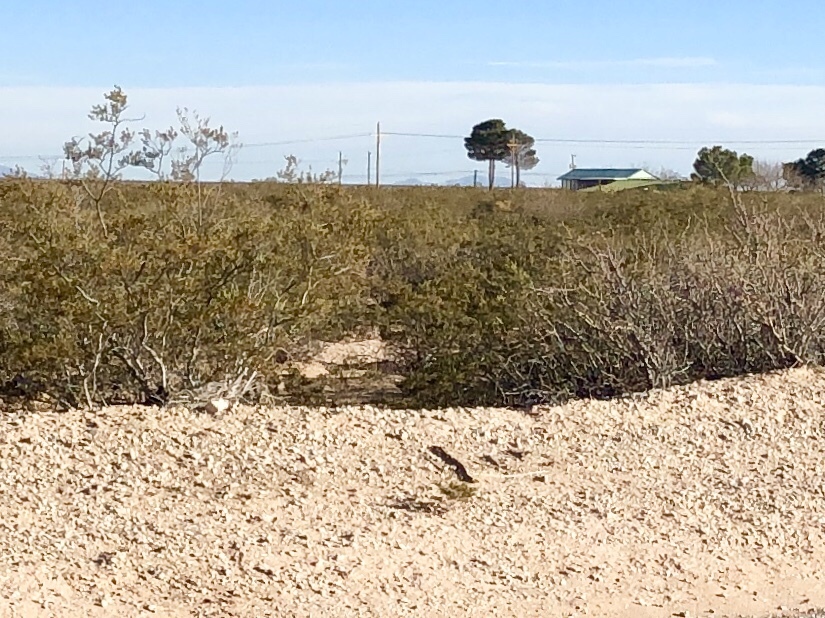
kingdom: Plantae
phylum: Tracheophyta
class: Magnoliopsida
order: Zygophyllales
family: Zygophyllaceae
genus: Larrea
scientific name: Larrea tridentata
